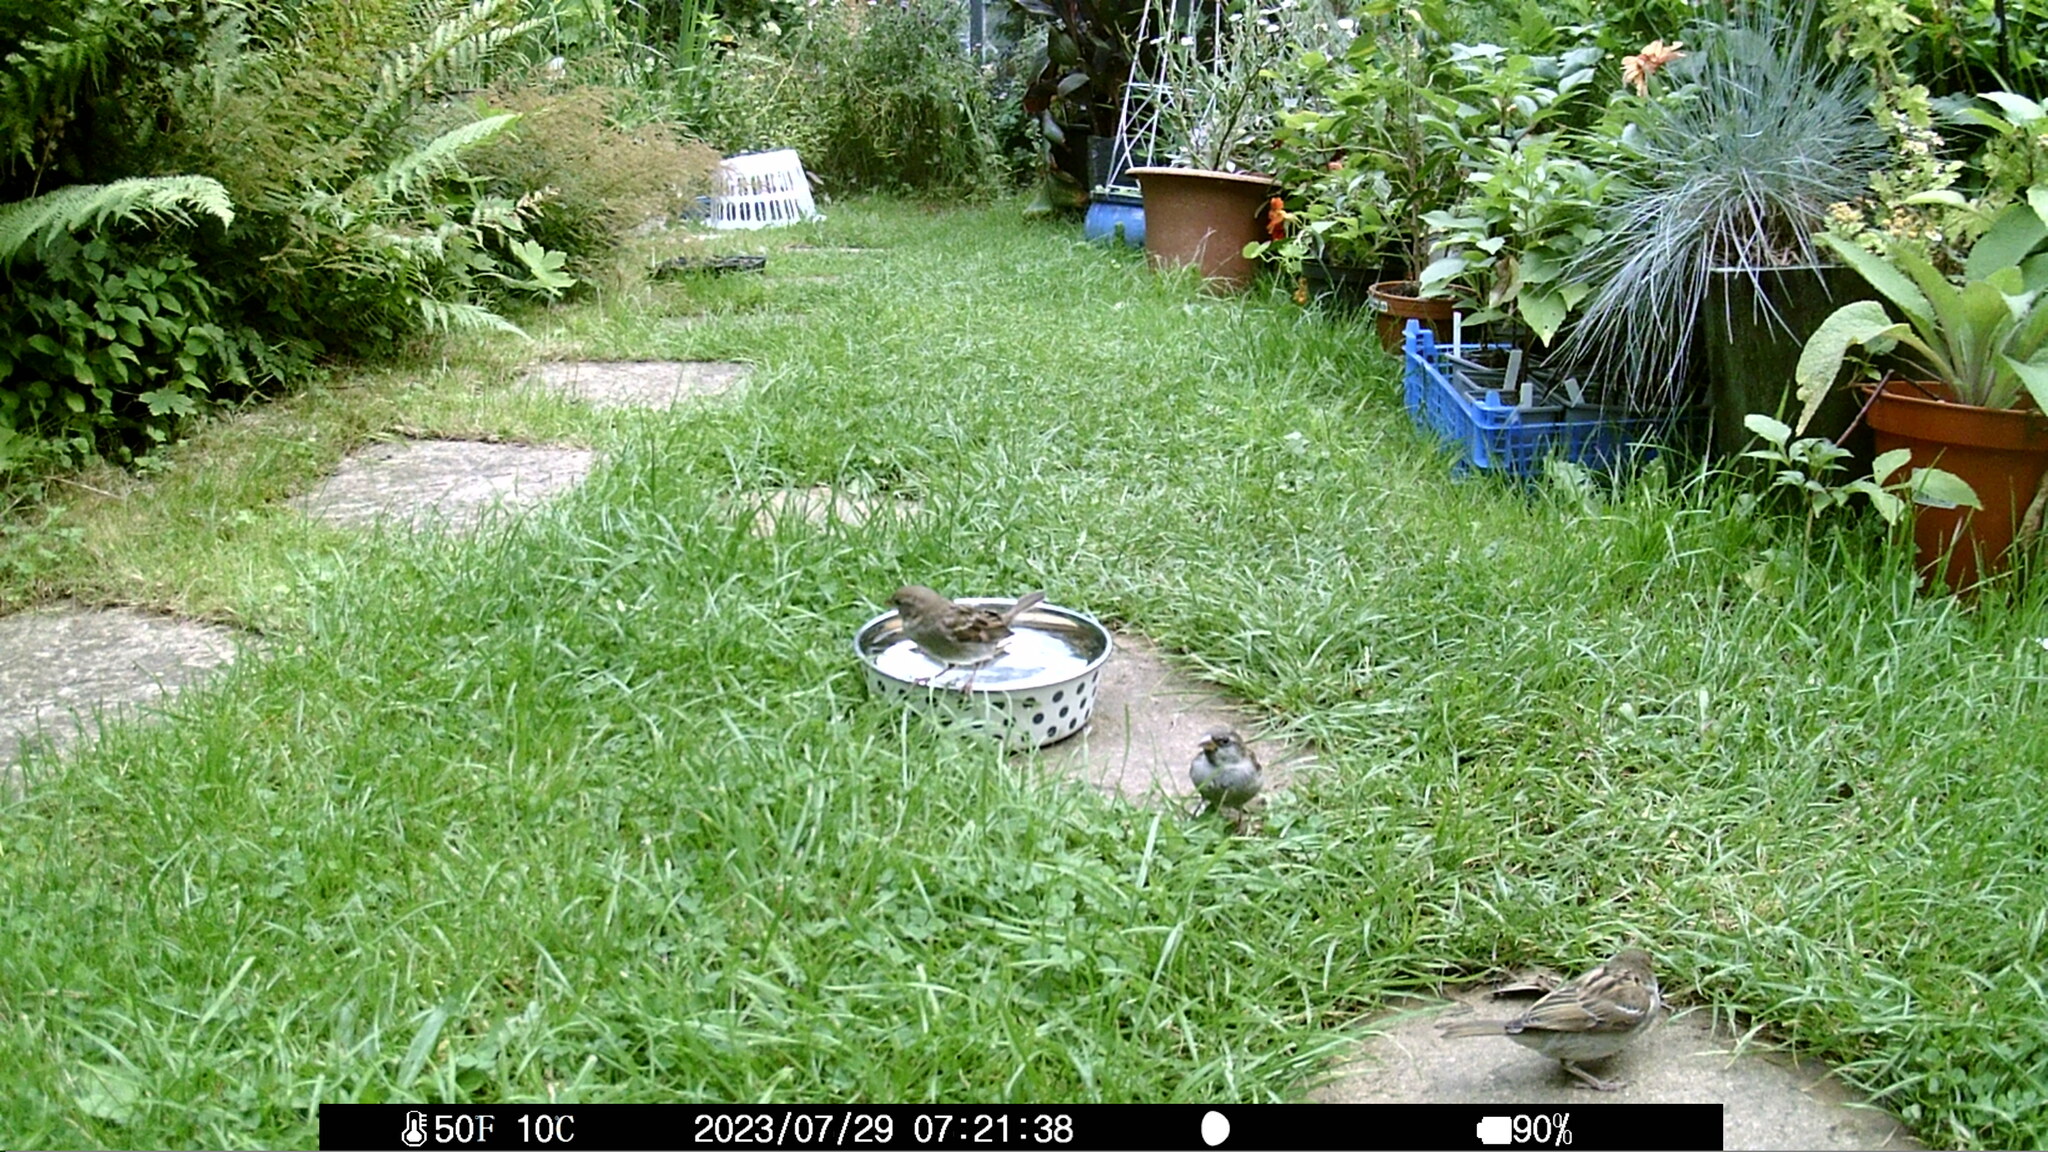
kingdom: Animalia
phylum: Chordata
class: Aves
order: Passeriformes
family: Passeridae
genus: Passer
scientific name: Passer domesticus
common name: House sparrow
